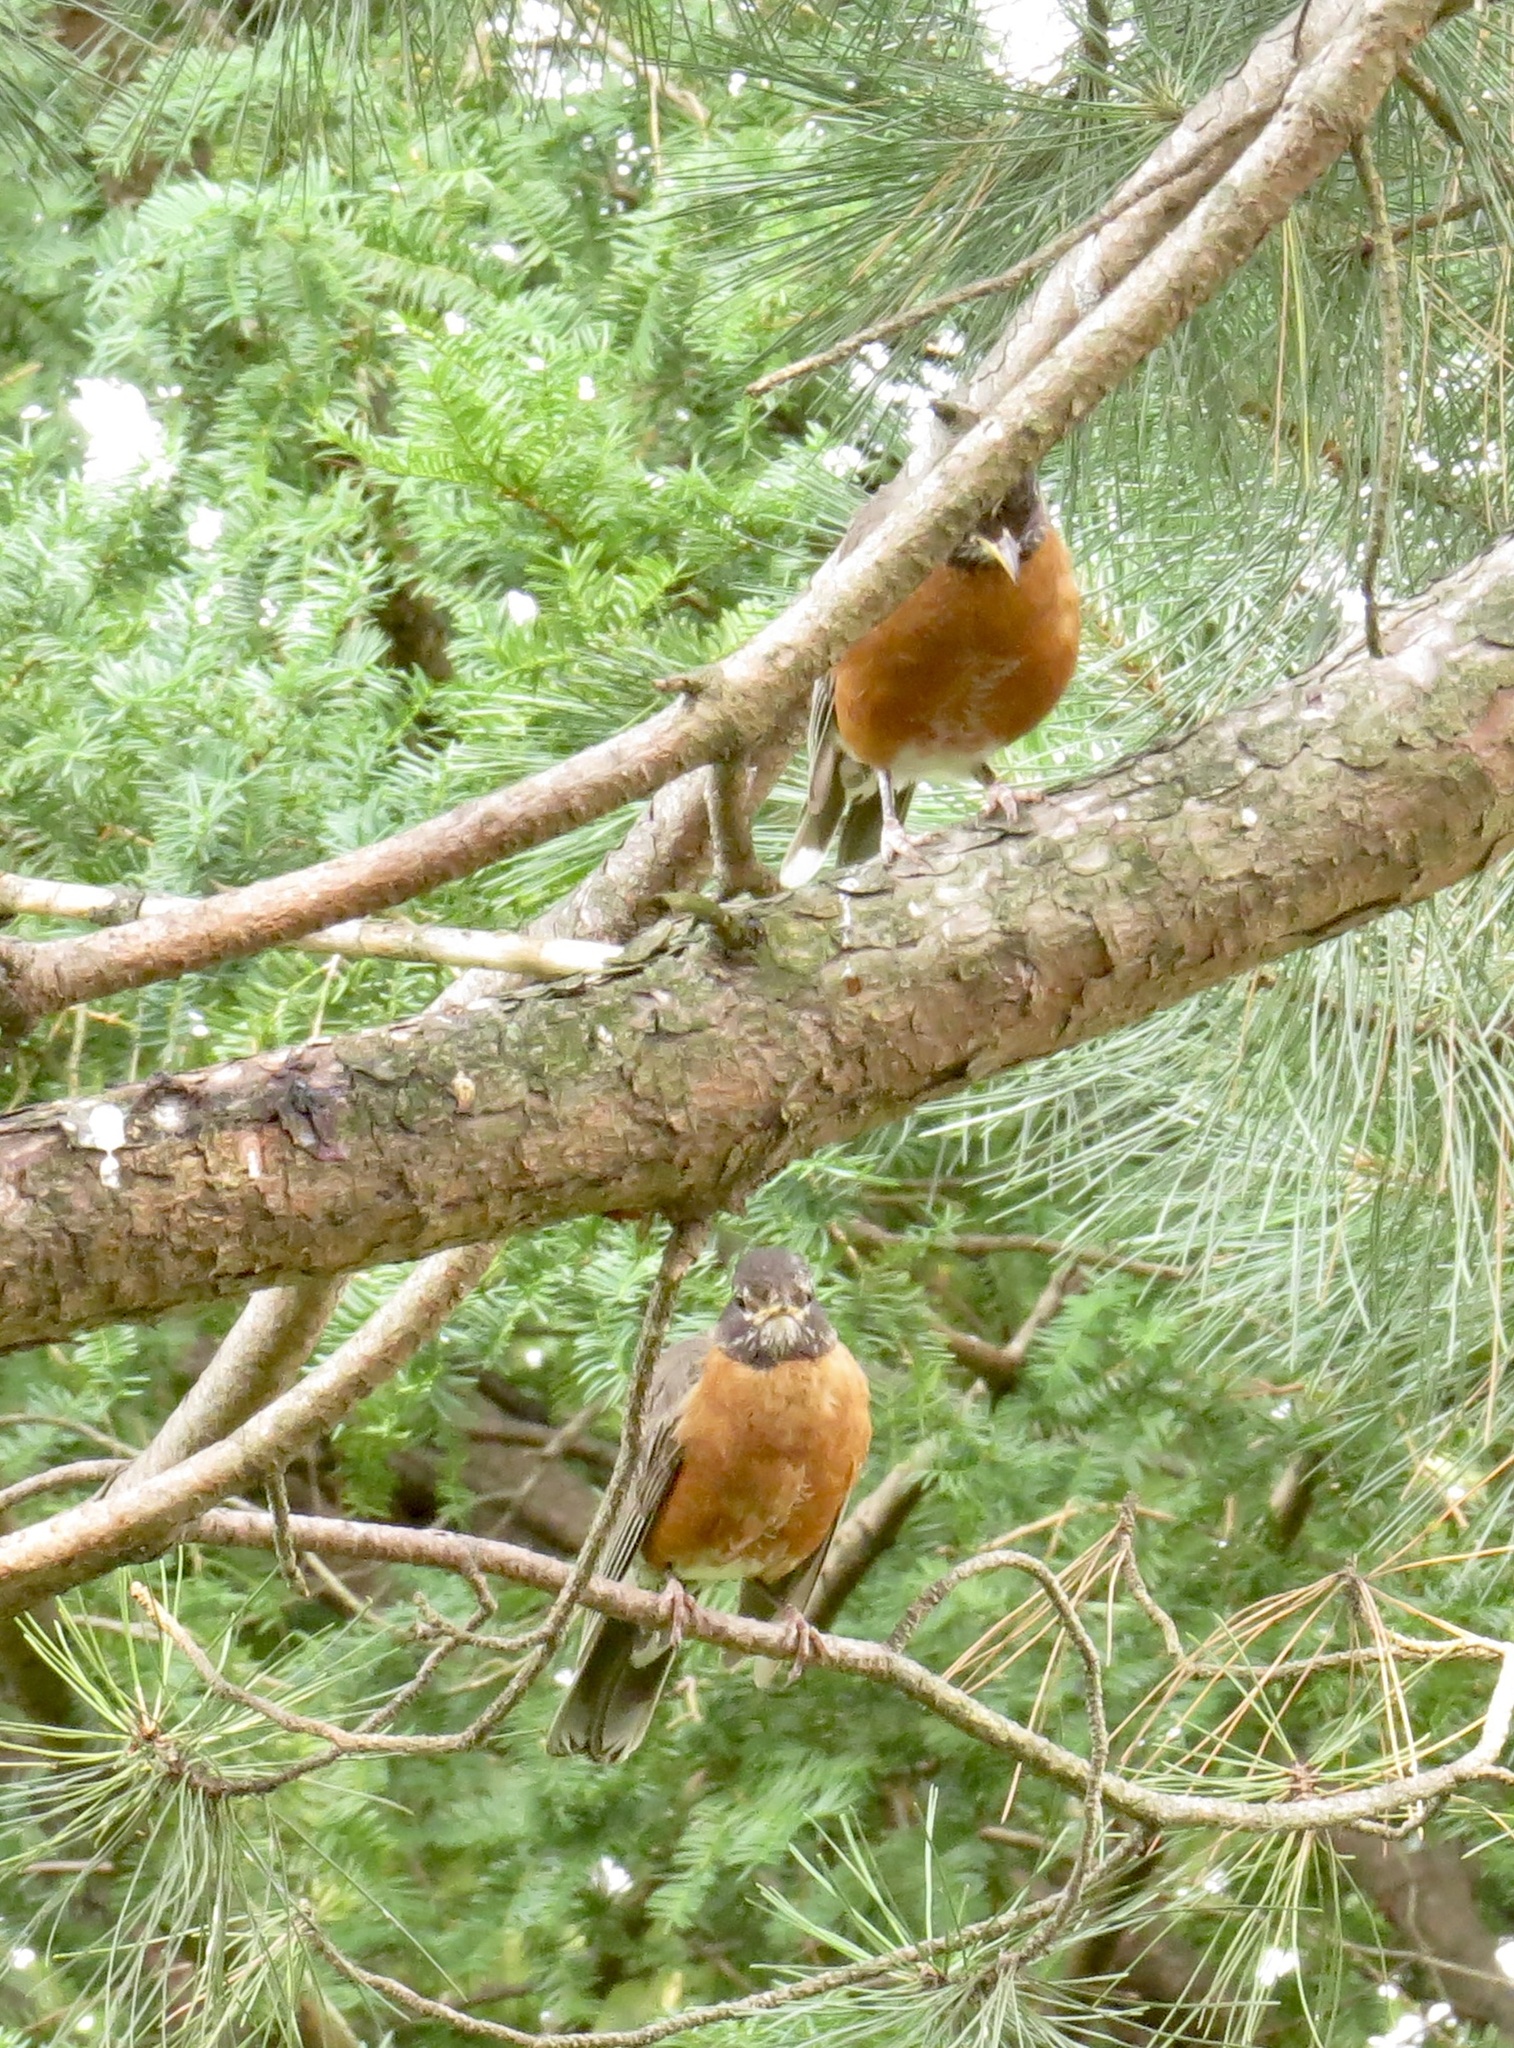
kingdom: Animalia
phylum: Chordata
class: Aves
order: Passeriformes
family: Turdidae
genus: Turdus
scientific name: Turdus migratorius
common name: American robin
